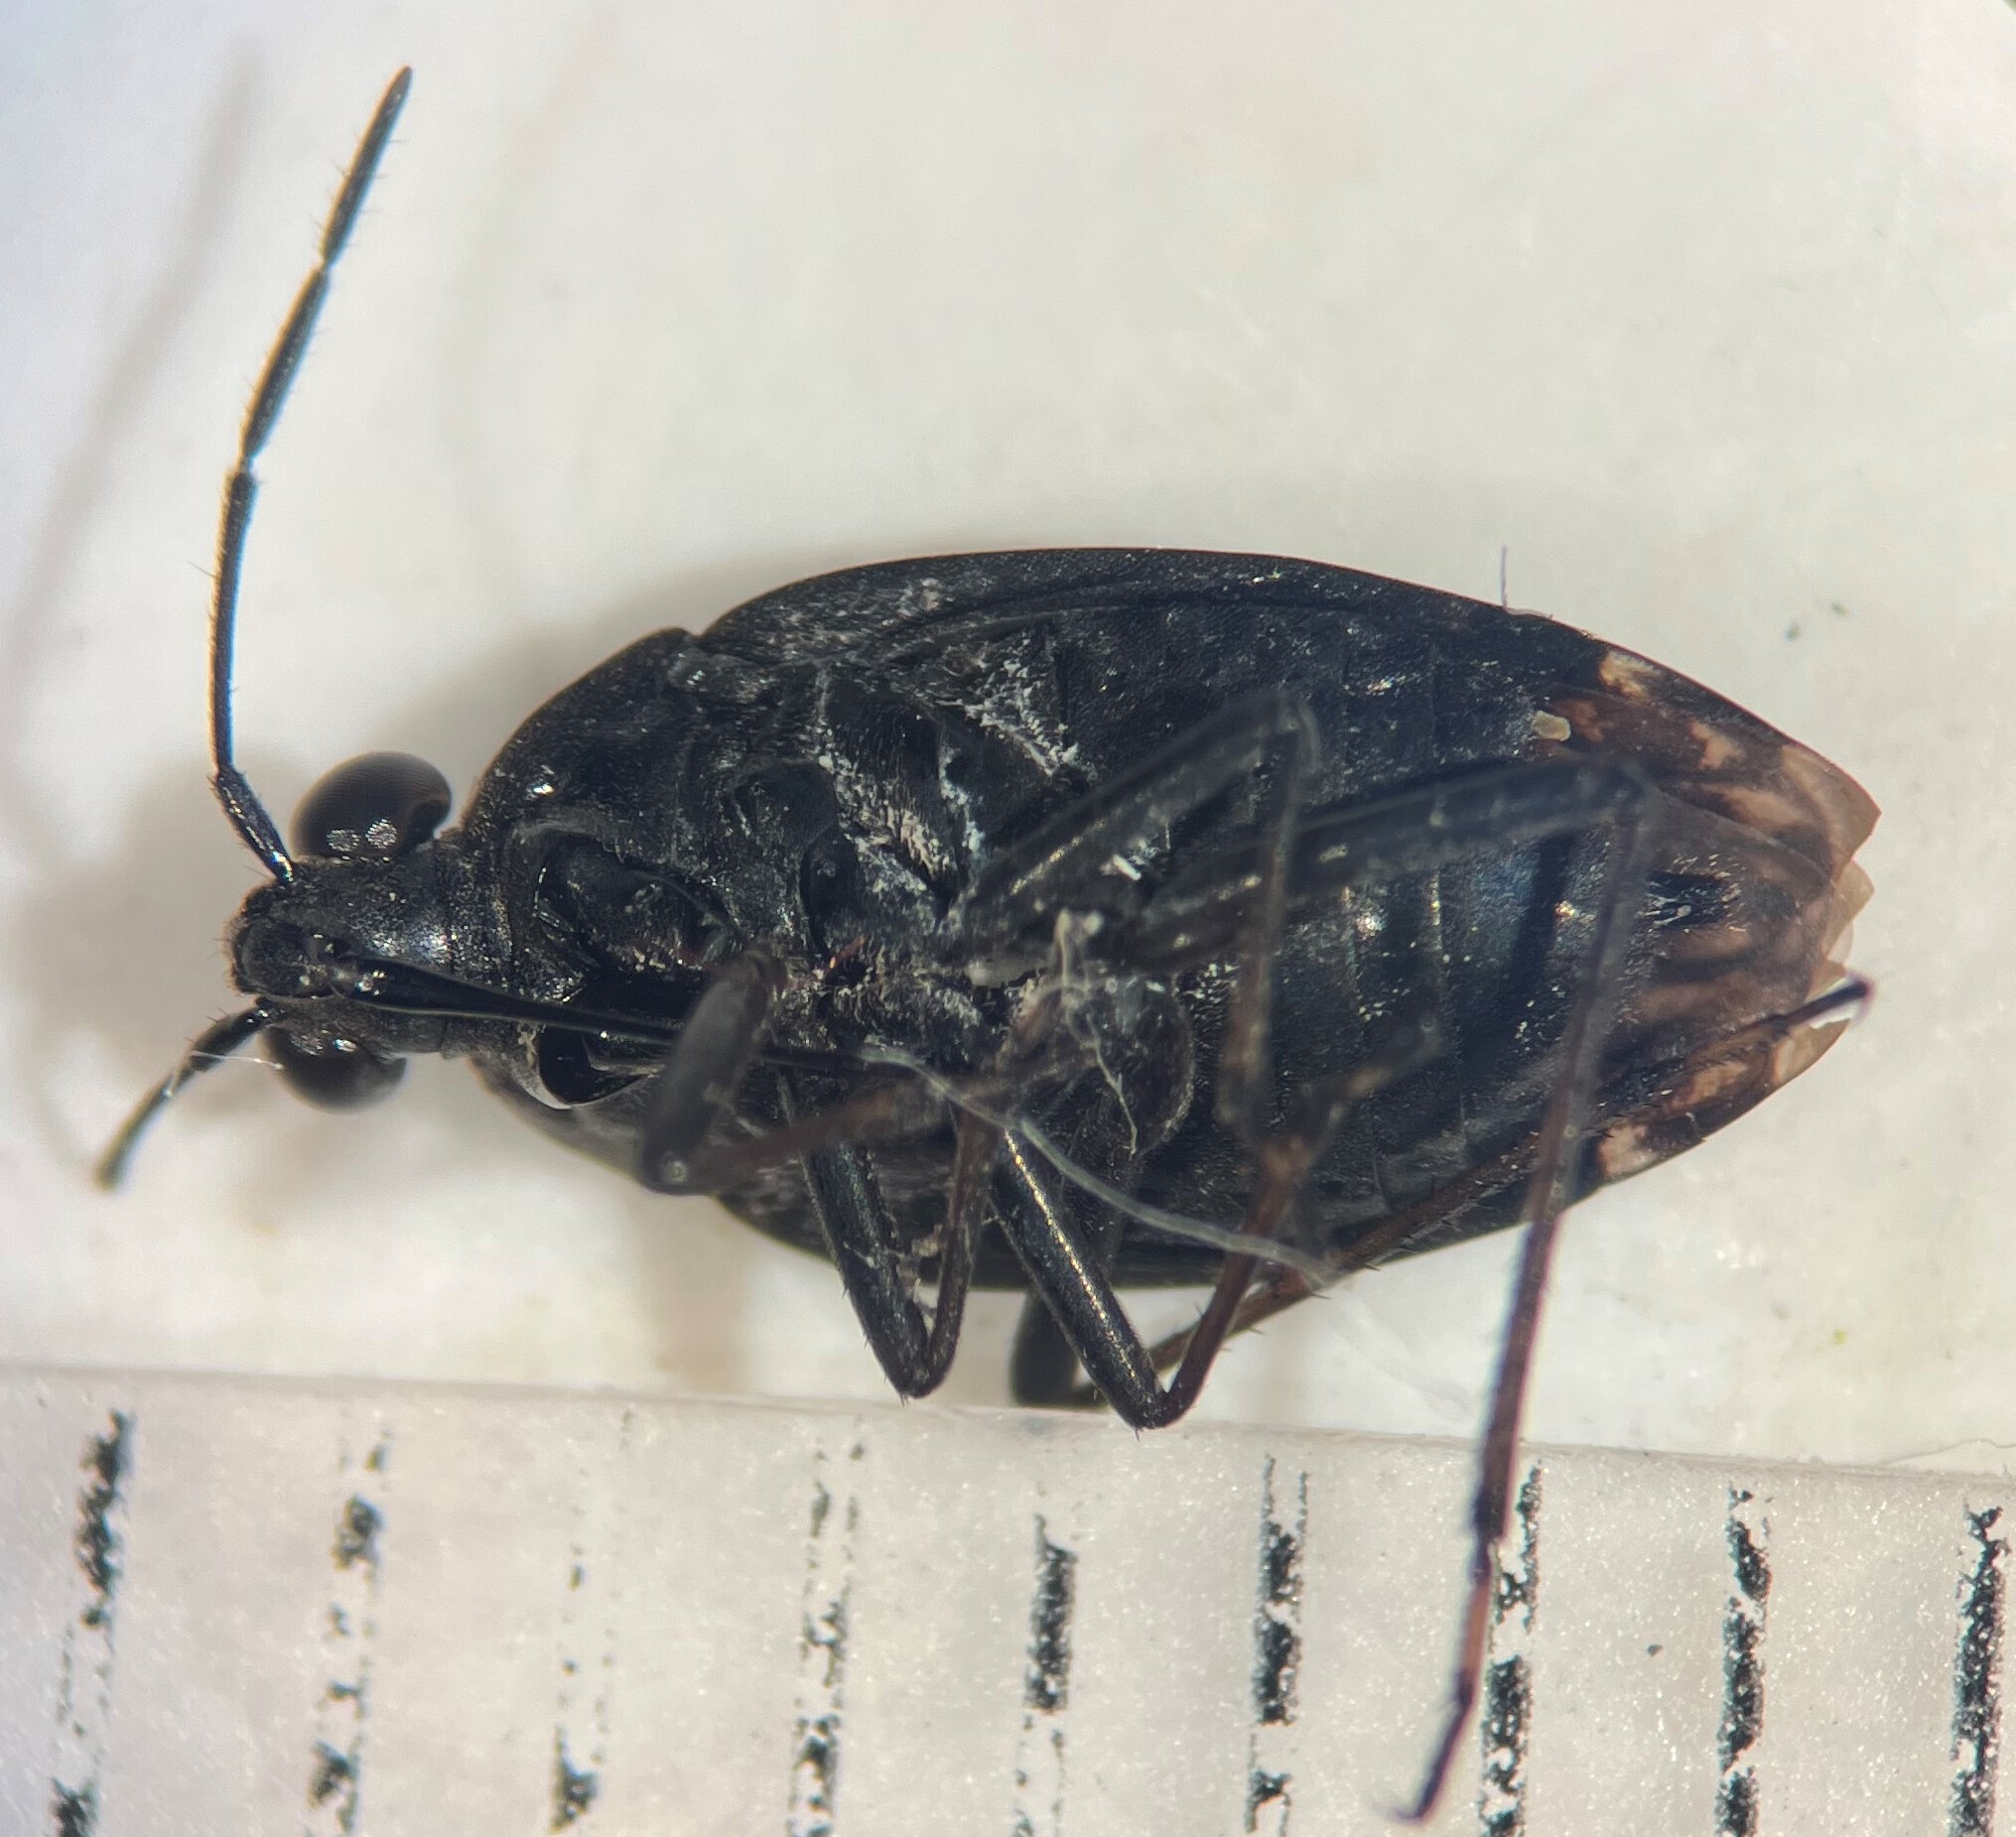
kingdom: Animalia
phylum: Arthropoda
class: Insecta
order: Hemiptera
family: Saldidae
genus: Salda
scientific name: Salda lugubris
